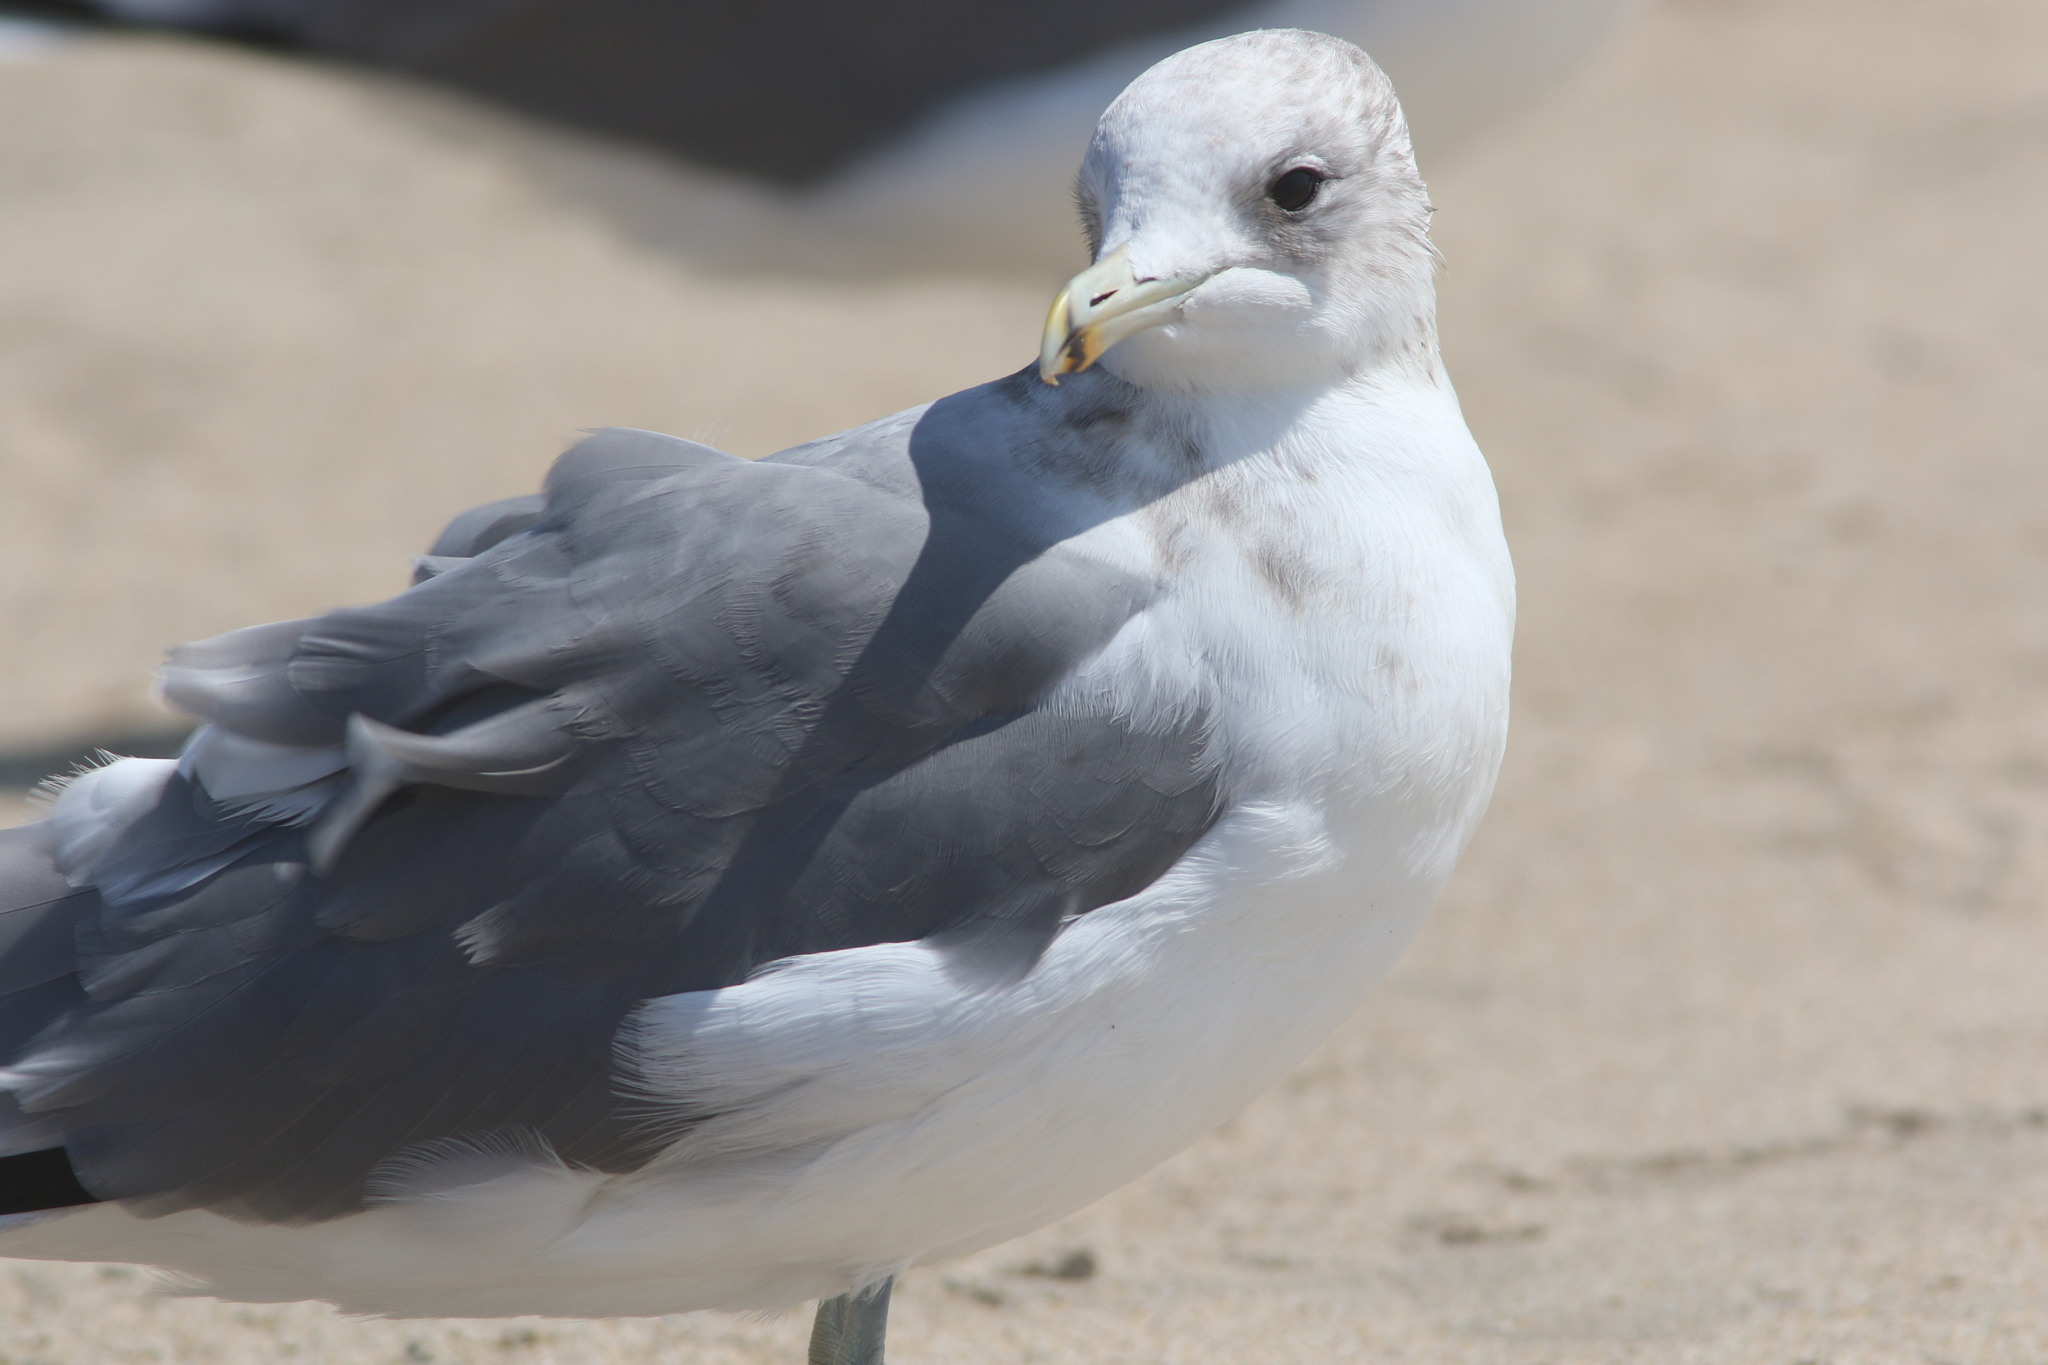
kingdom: Animalia
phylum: Chordata
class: Aves
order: Charadriiformes
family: Laridae
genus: Larus
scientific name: Larus californicus
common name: California gull
